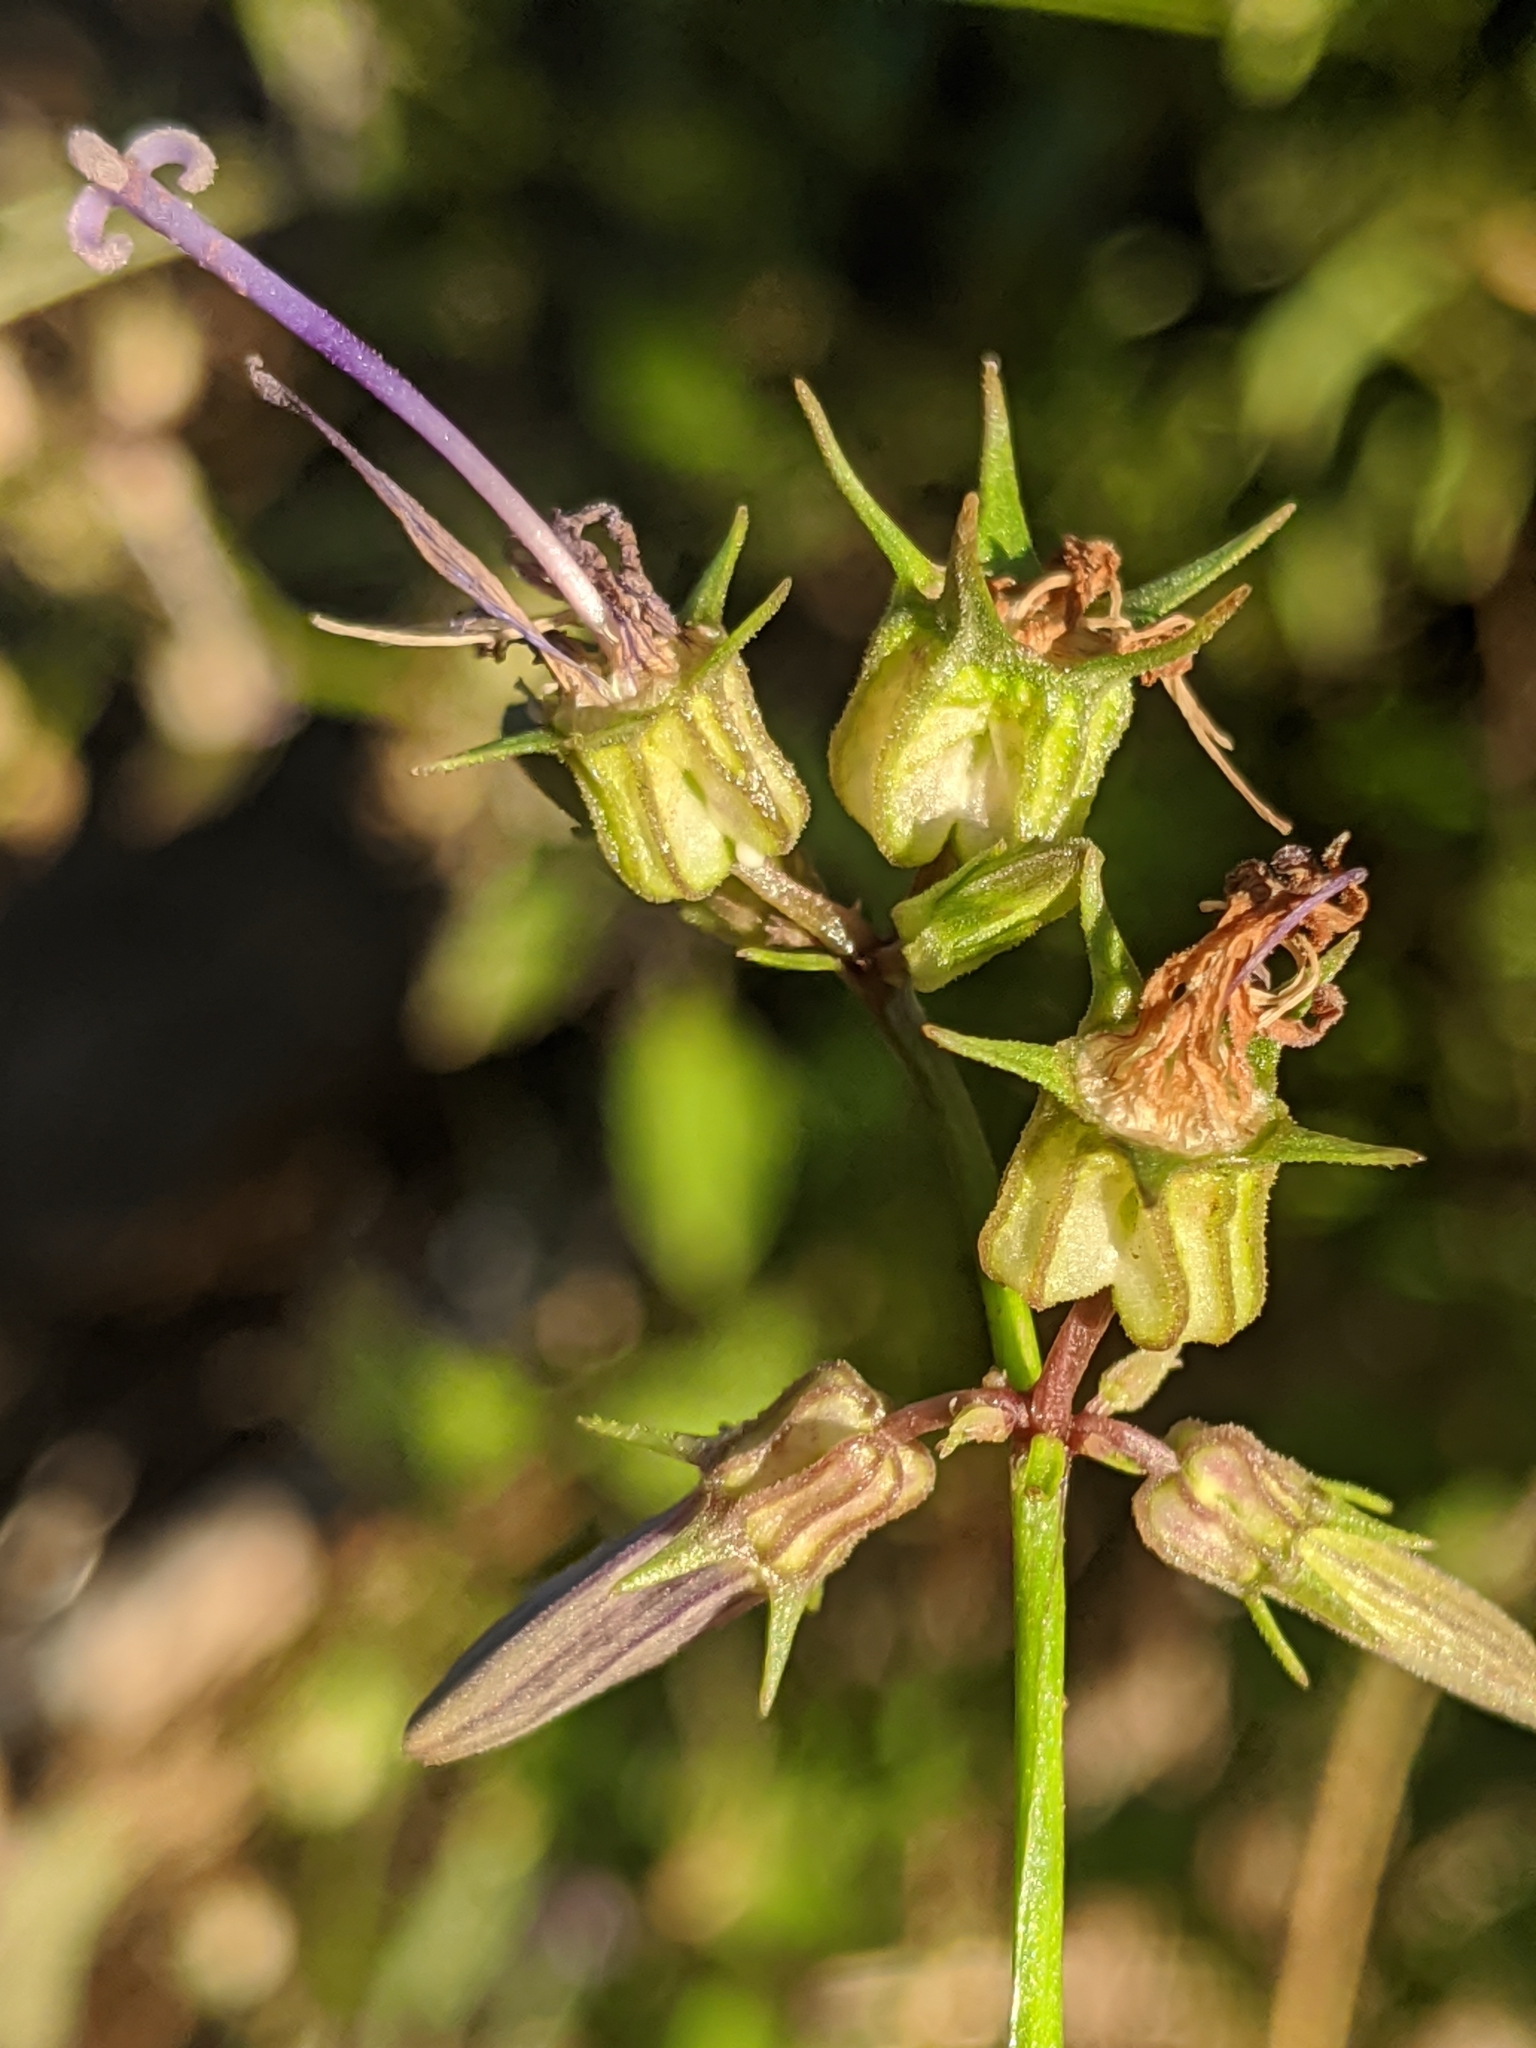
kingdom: Plantae
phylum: Tracheophyta
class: Magnoliopsida
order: Asterales
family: Campanulaceae
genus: Smithiastrum
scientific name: Smithiastrum prenanthoides
